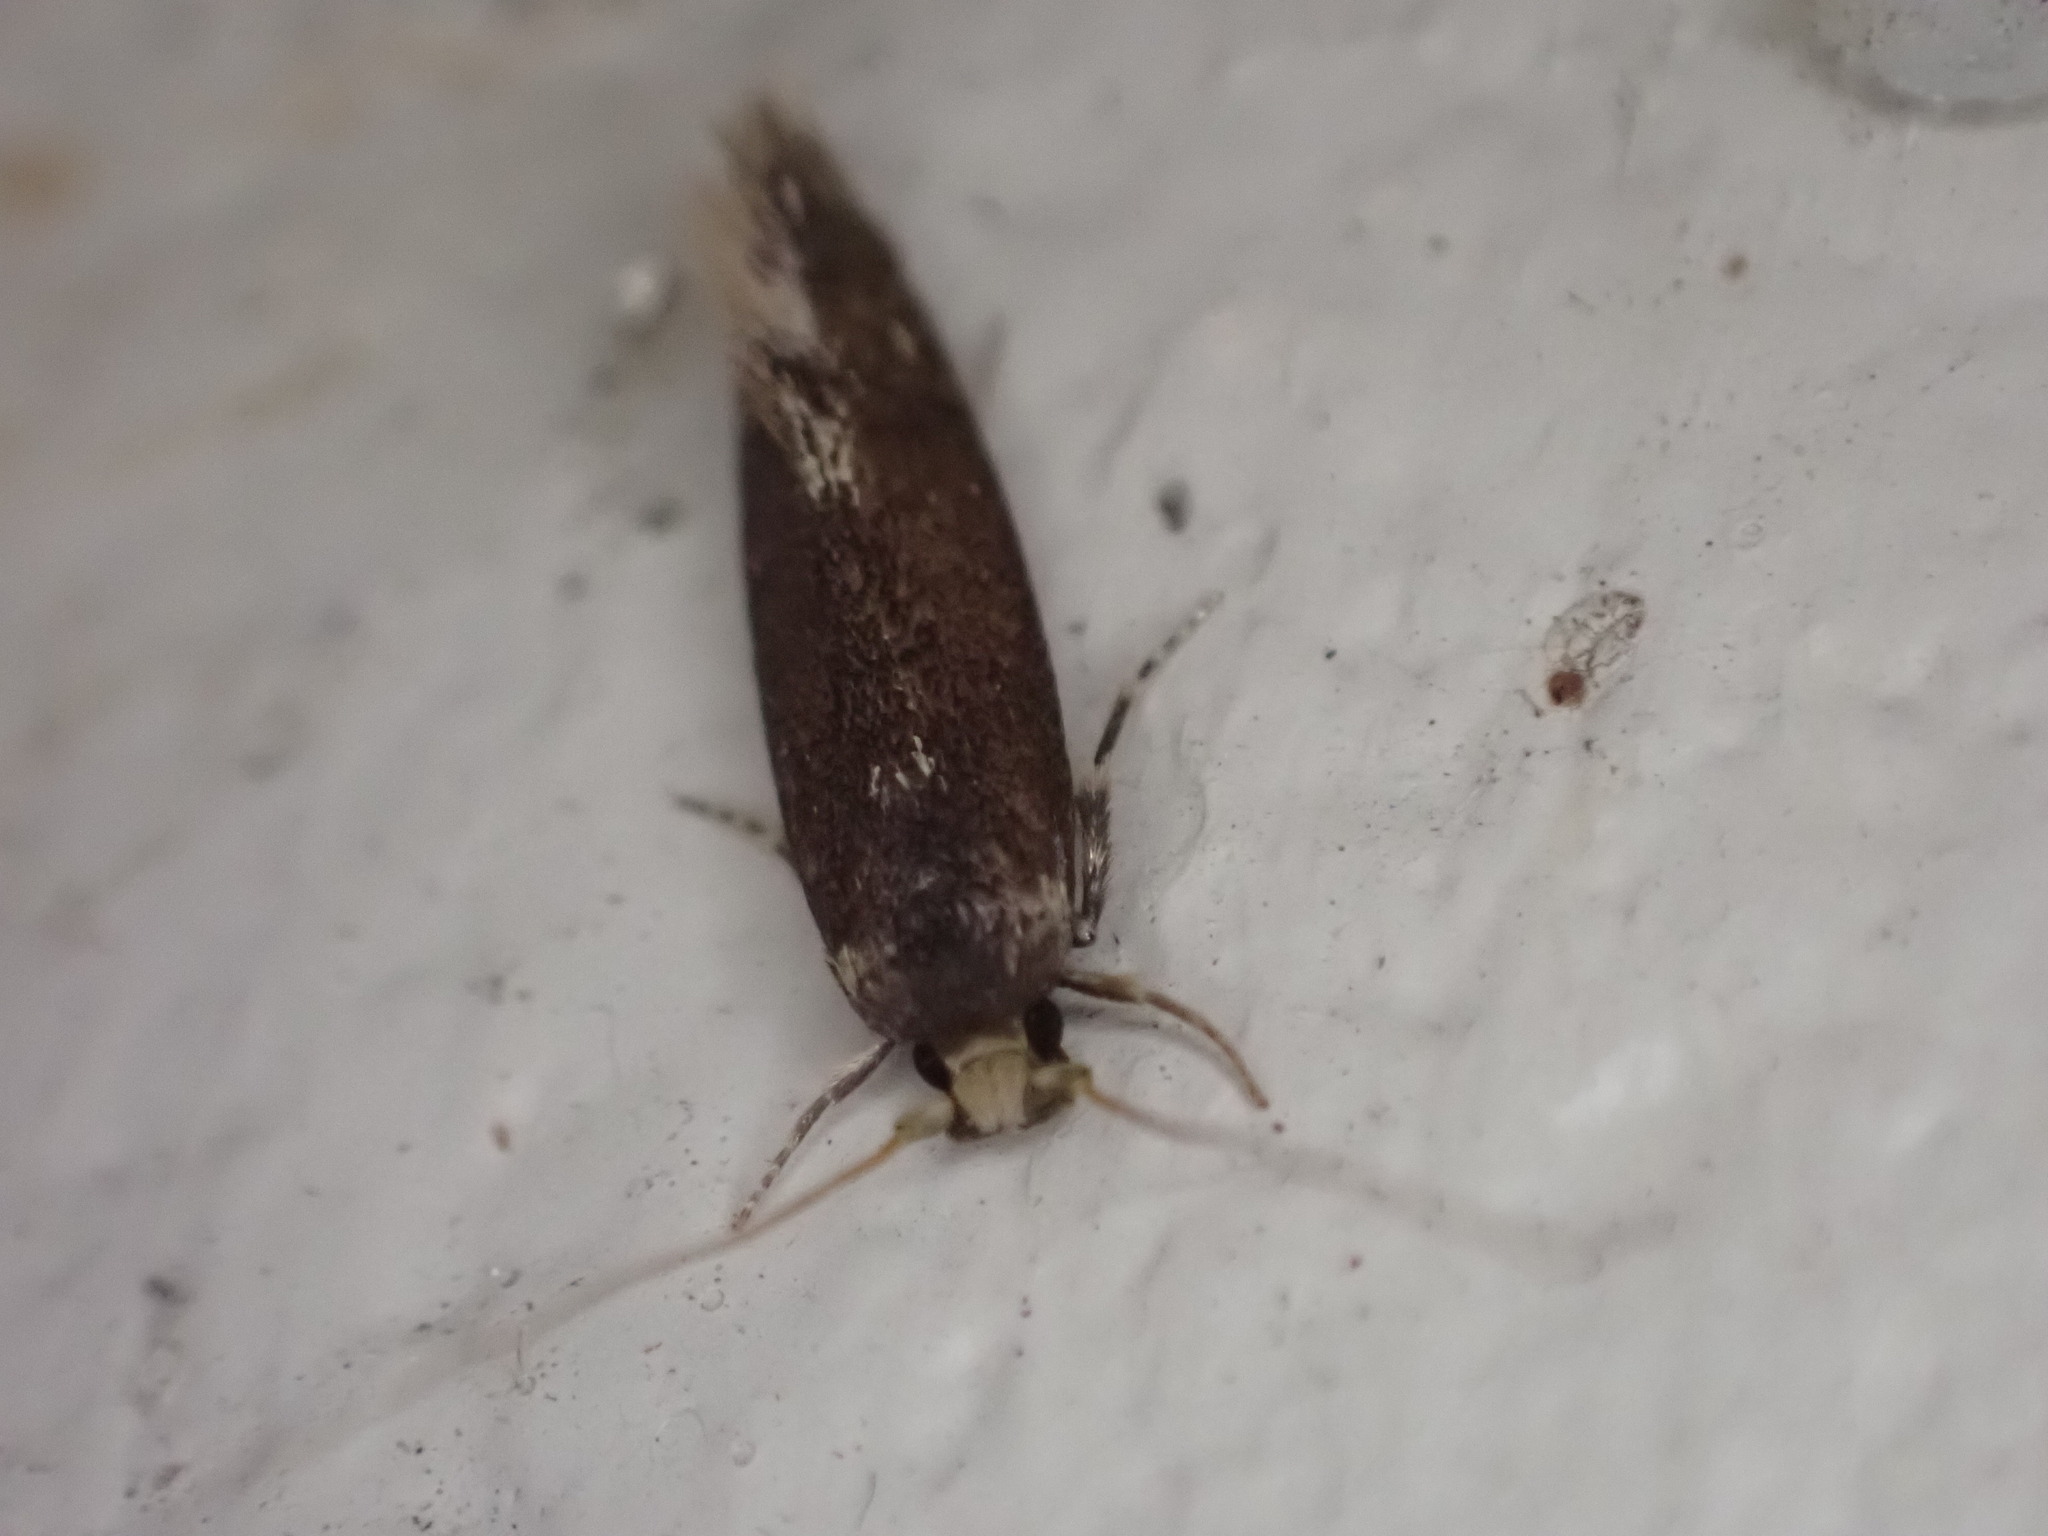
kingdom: Animalia
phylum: Arthropoda
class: Insecta
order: Lepidoptera
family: Tineidae
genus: Opogona
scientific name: Opogona omoscopa
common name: Moth
